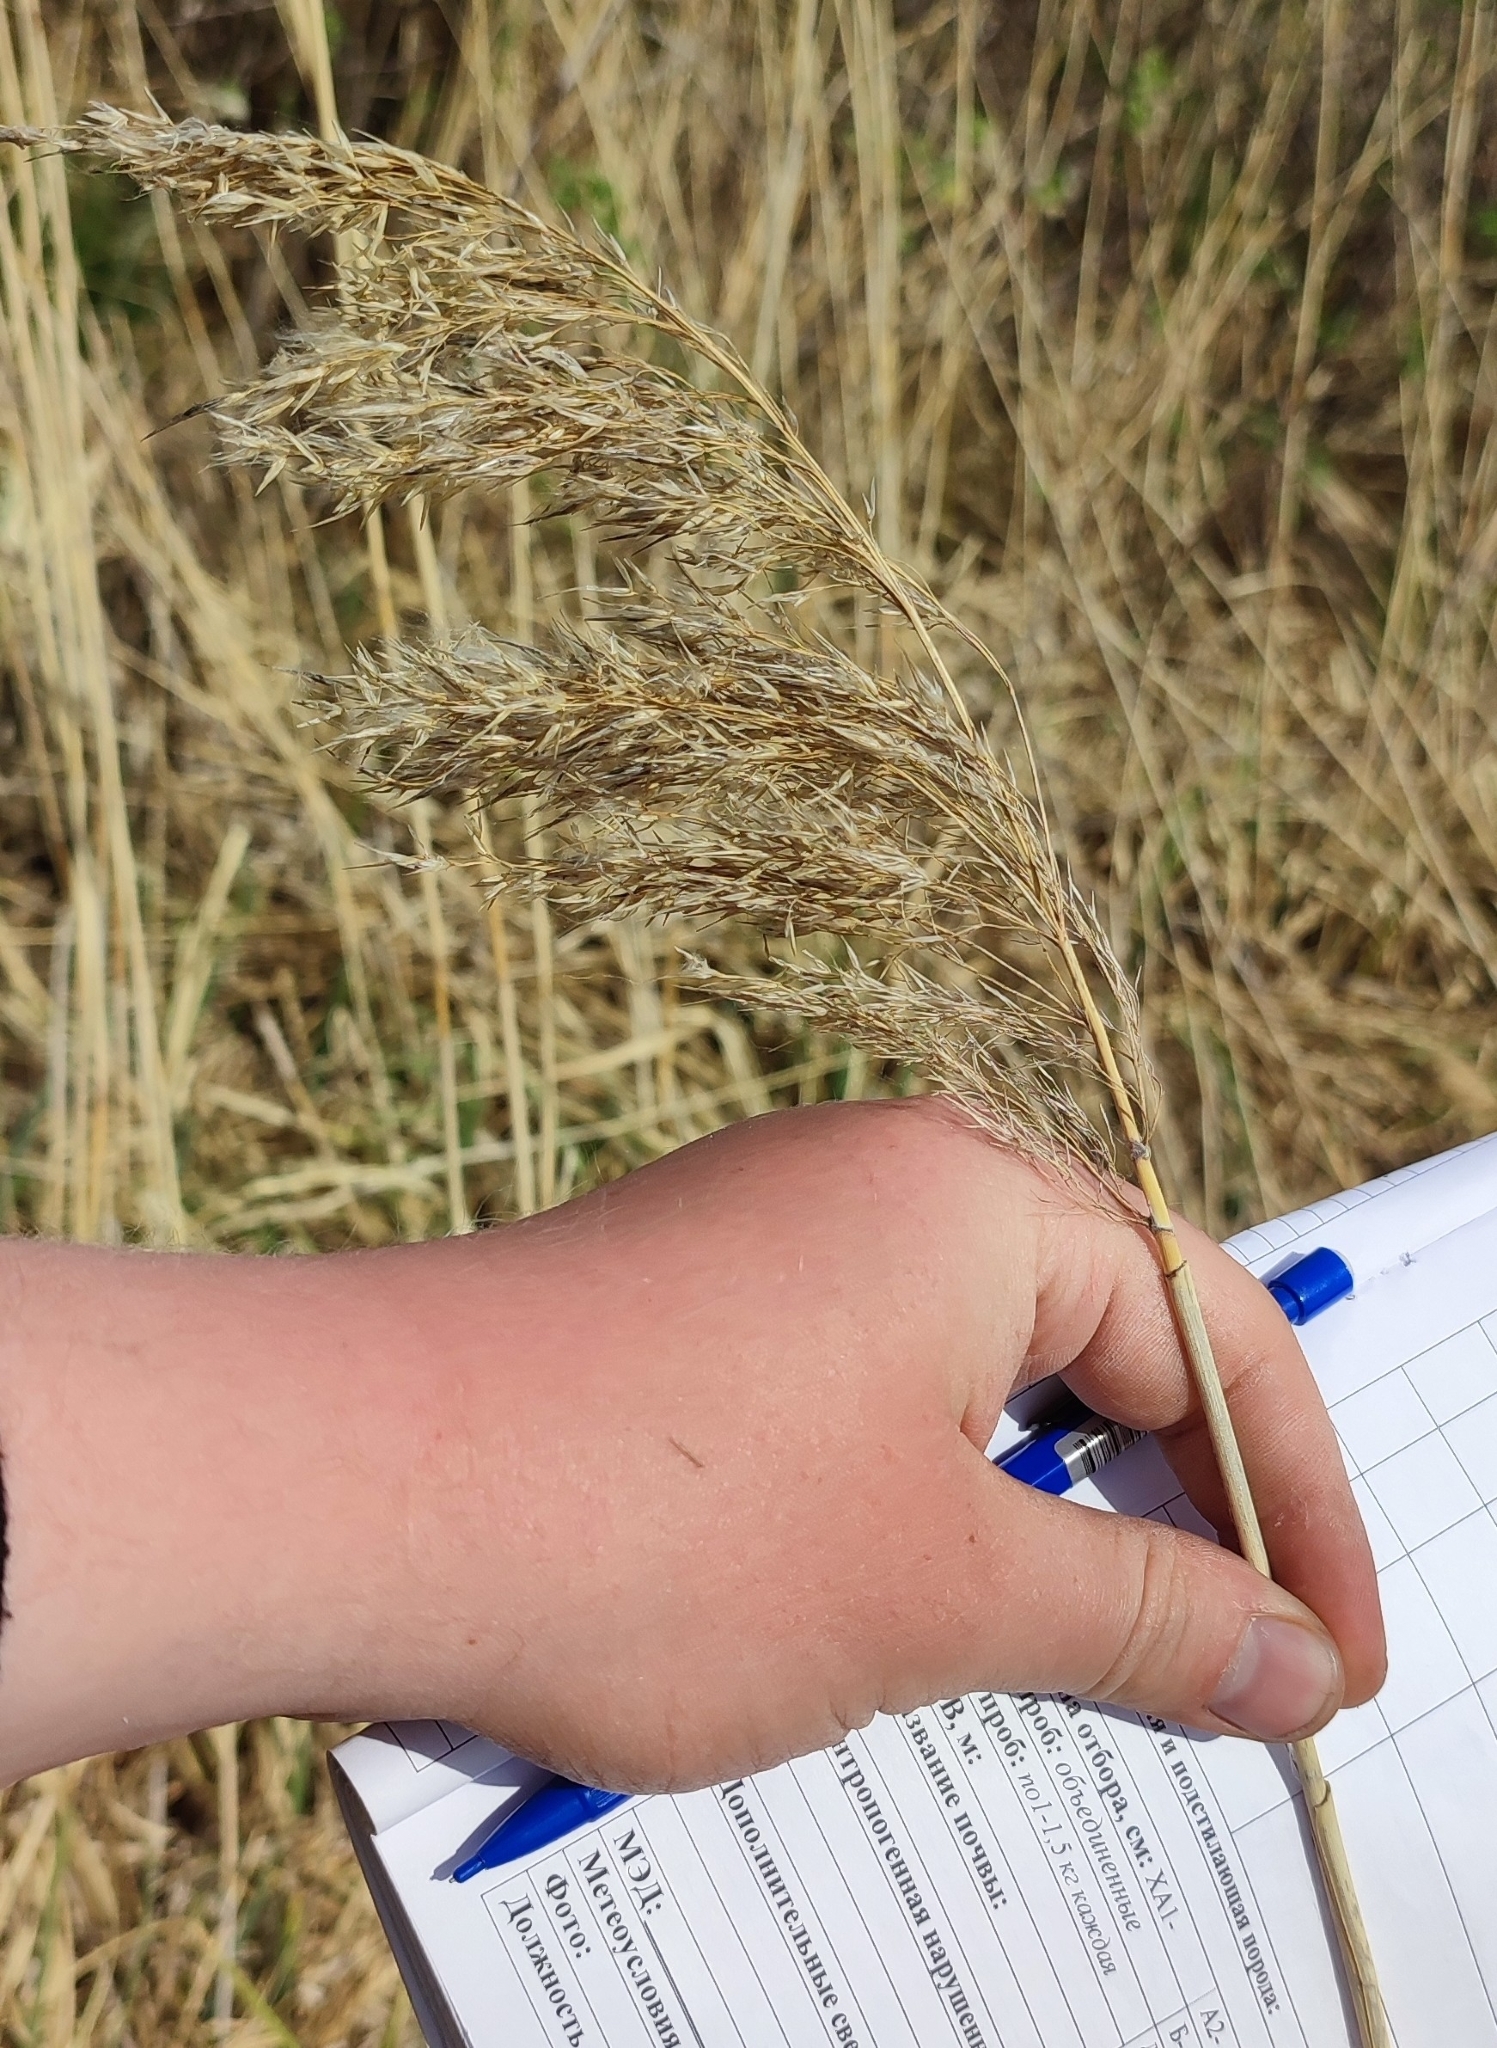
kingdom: Plantae
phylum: Tracheophyta
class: Liliopsida
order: Poales
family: Poaceae
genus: Phragmites
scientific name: Phragmites australis
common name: Common reed
